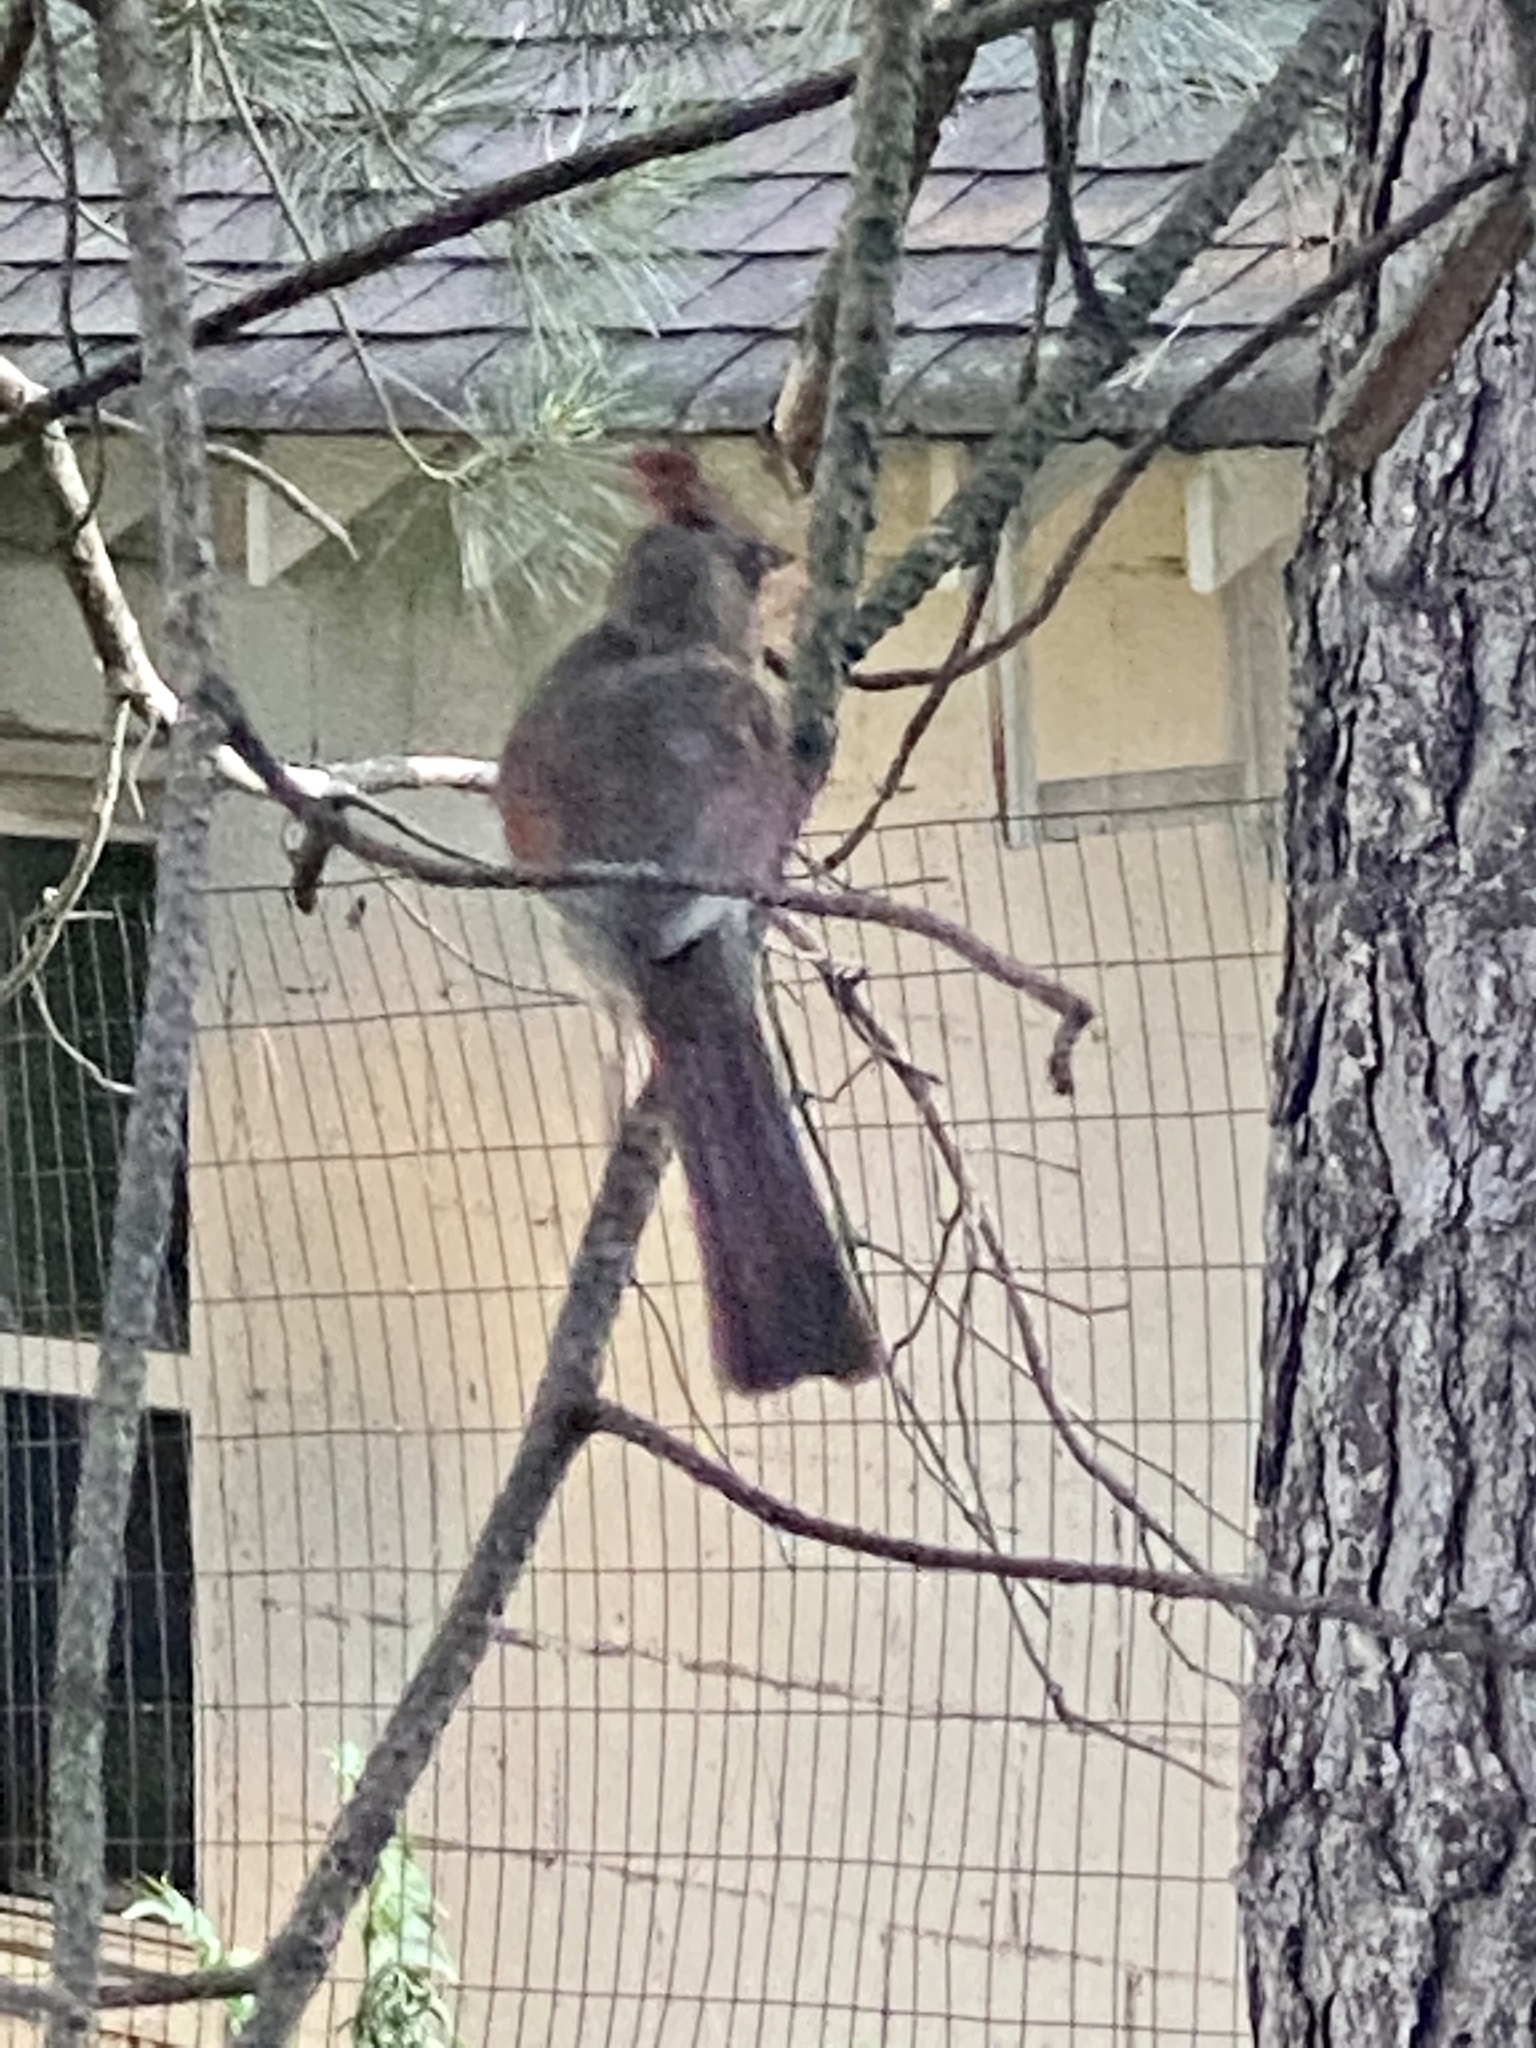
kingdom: Animalia
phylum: Chordata
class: Aves
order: Passeriformes
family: Cardinalidae
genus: Cardinalis
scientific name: Cardinalis cardinalis
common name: Northern cardinal
